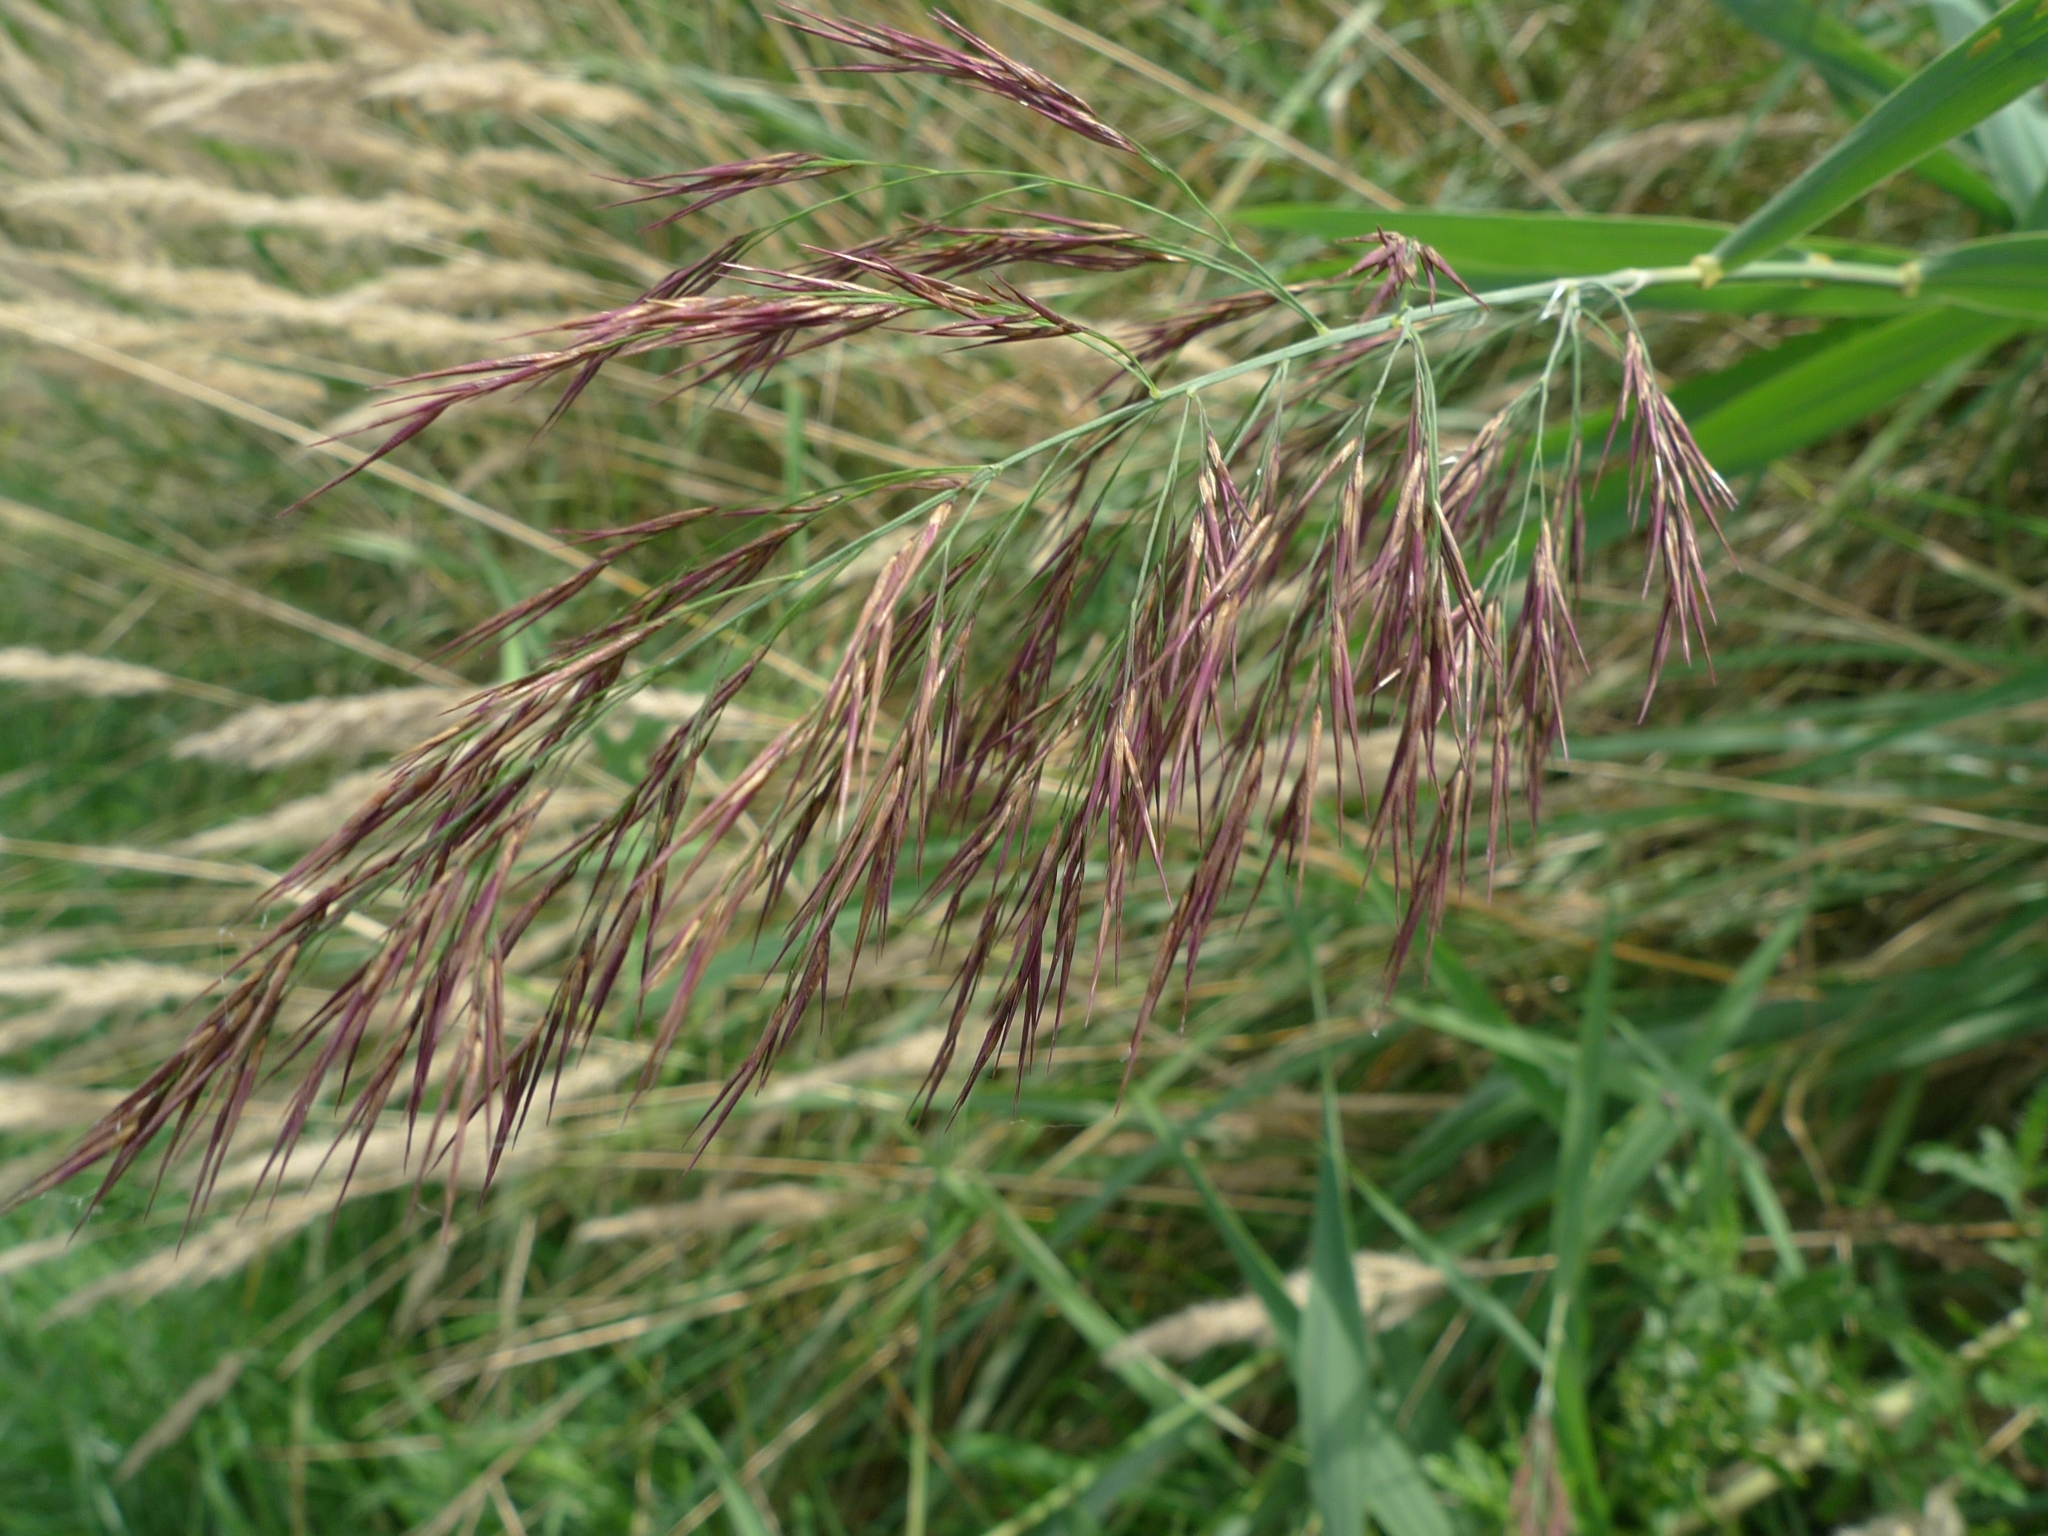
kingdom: Plantae
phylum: Tracheophyta
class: Liliopsida
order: Poales
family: Poaceae
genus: Phragmites
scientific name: Phragmites australis
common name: Common reed
